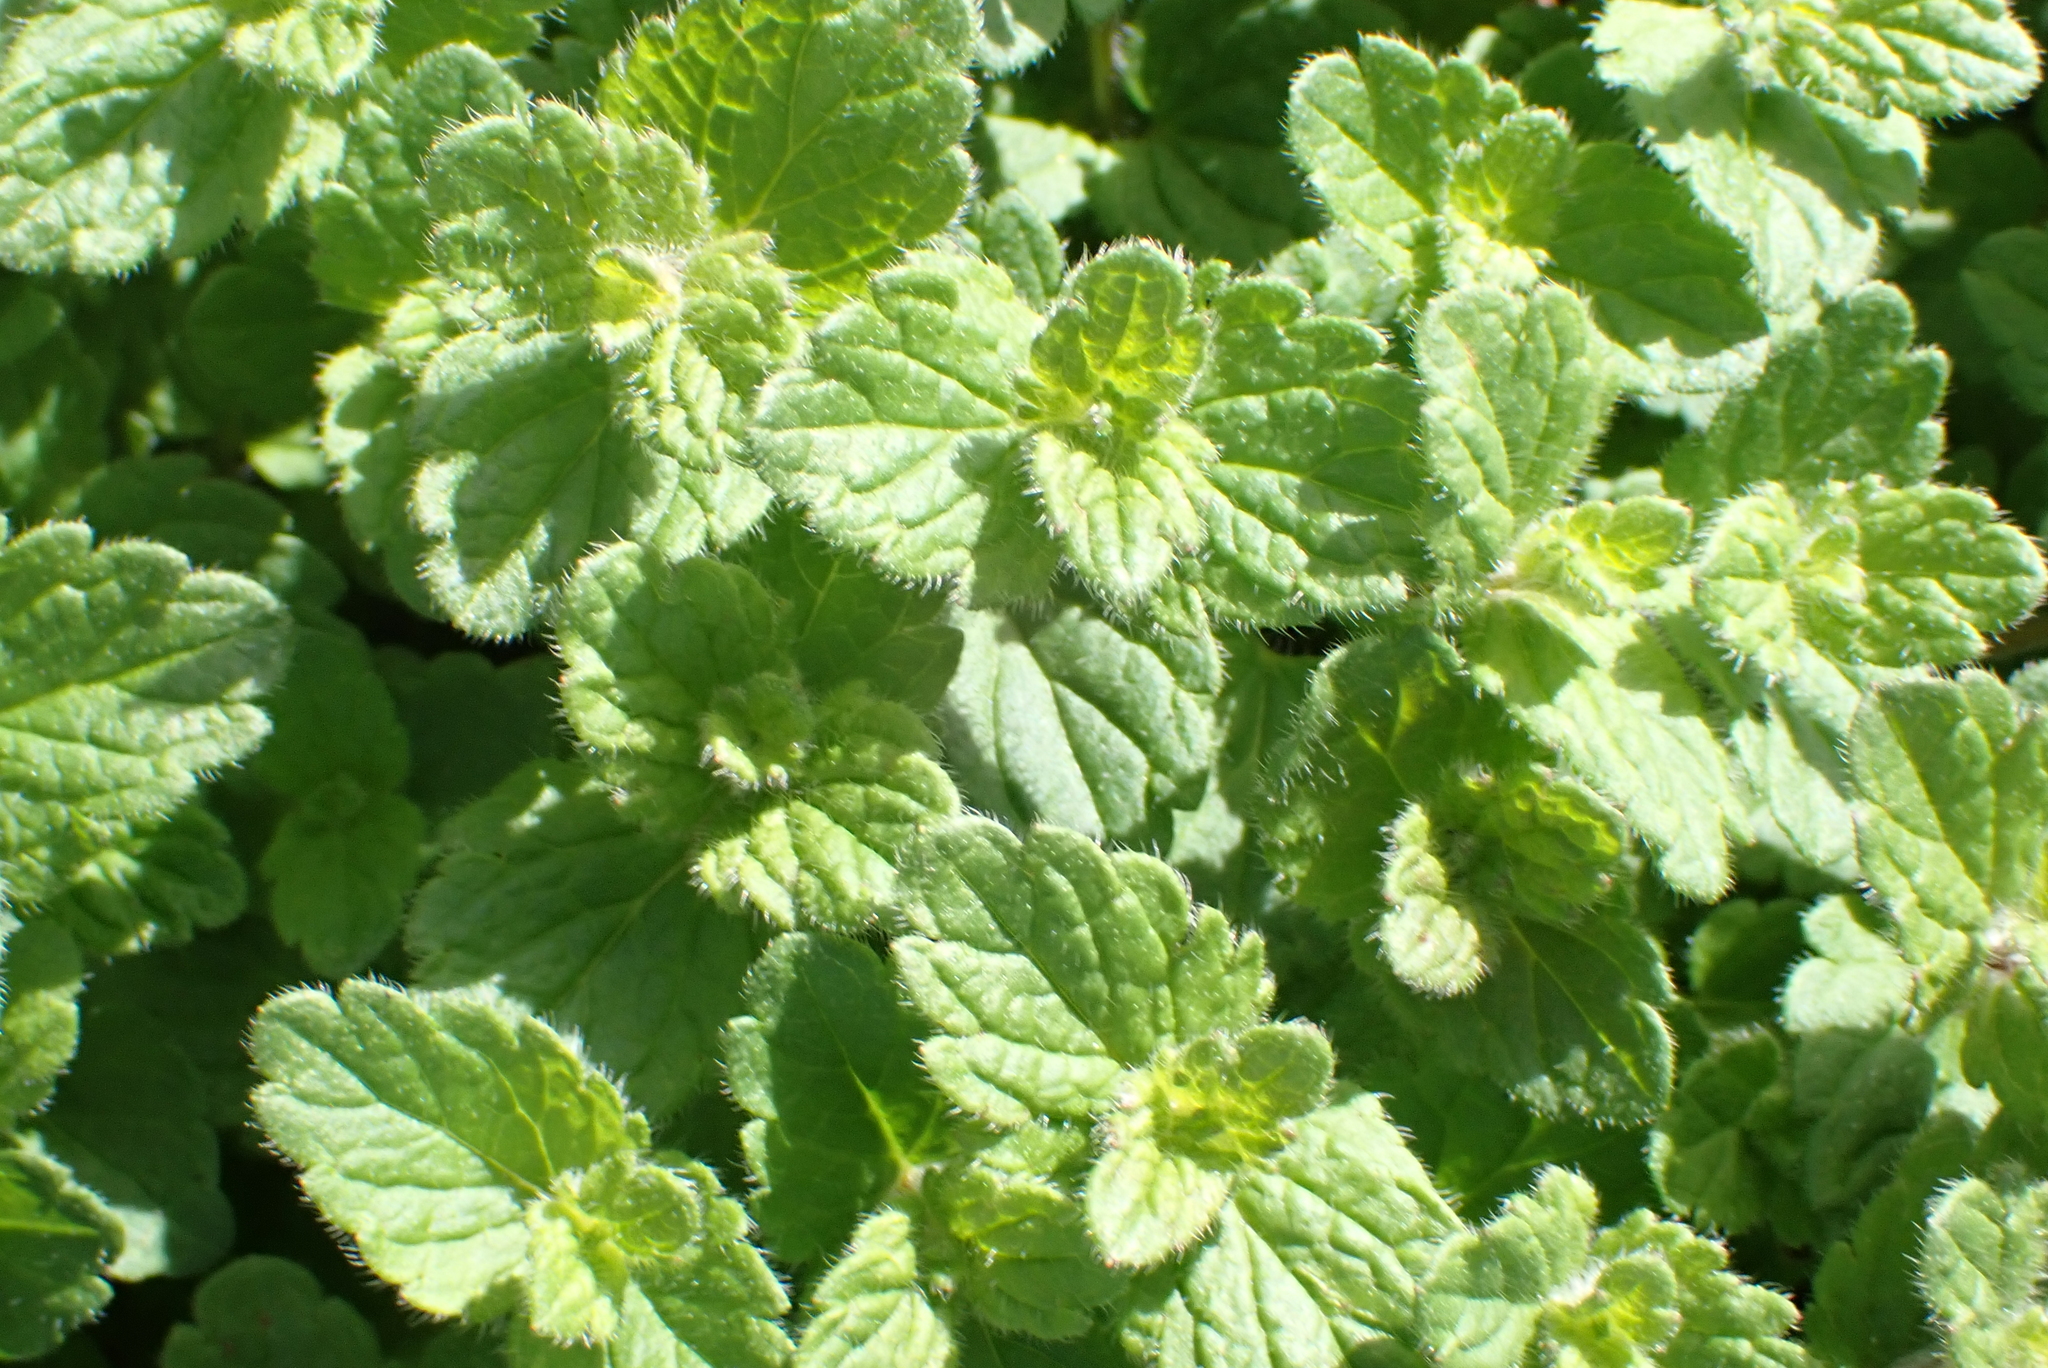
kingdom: Plantae
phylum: Tracheophyta
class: Magnoliopsida
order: Lamiales
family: Plantaginaceae
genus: Veronica
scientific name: Veronica chamaedrys
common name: Germander speedwell
